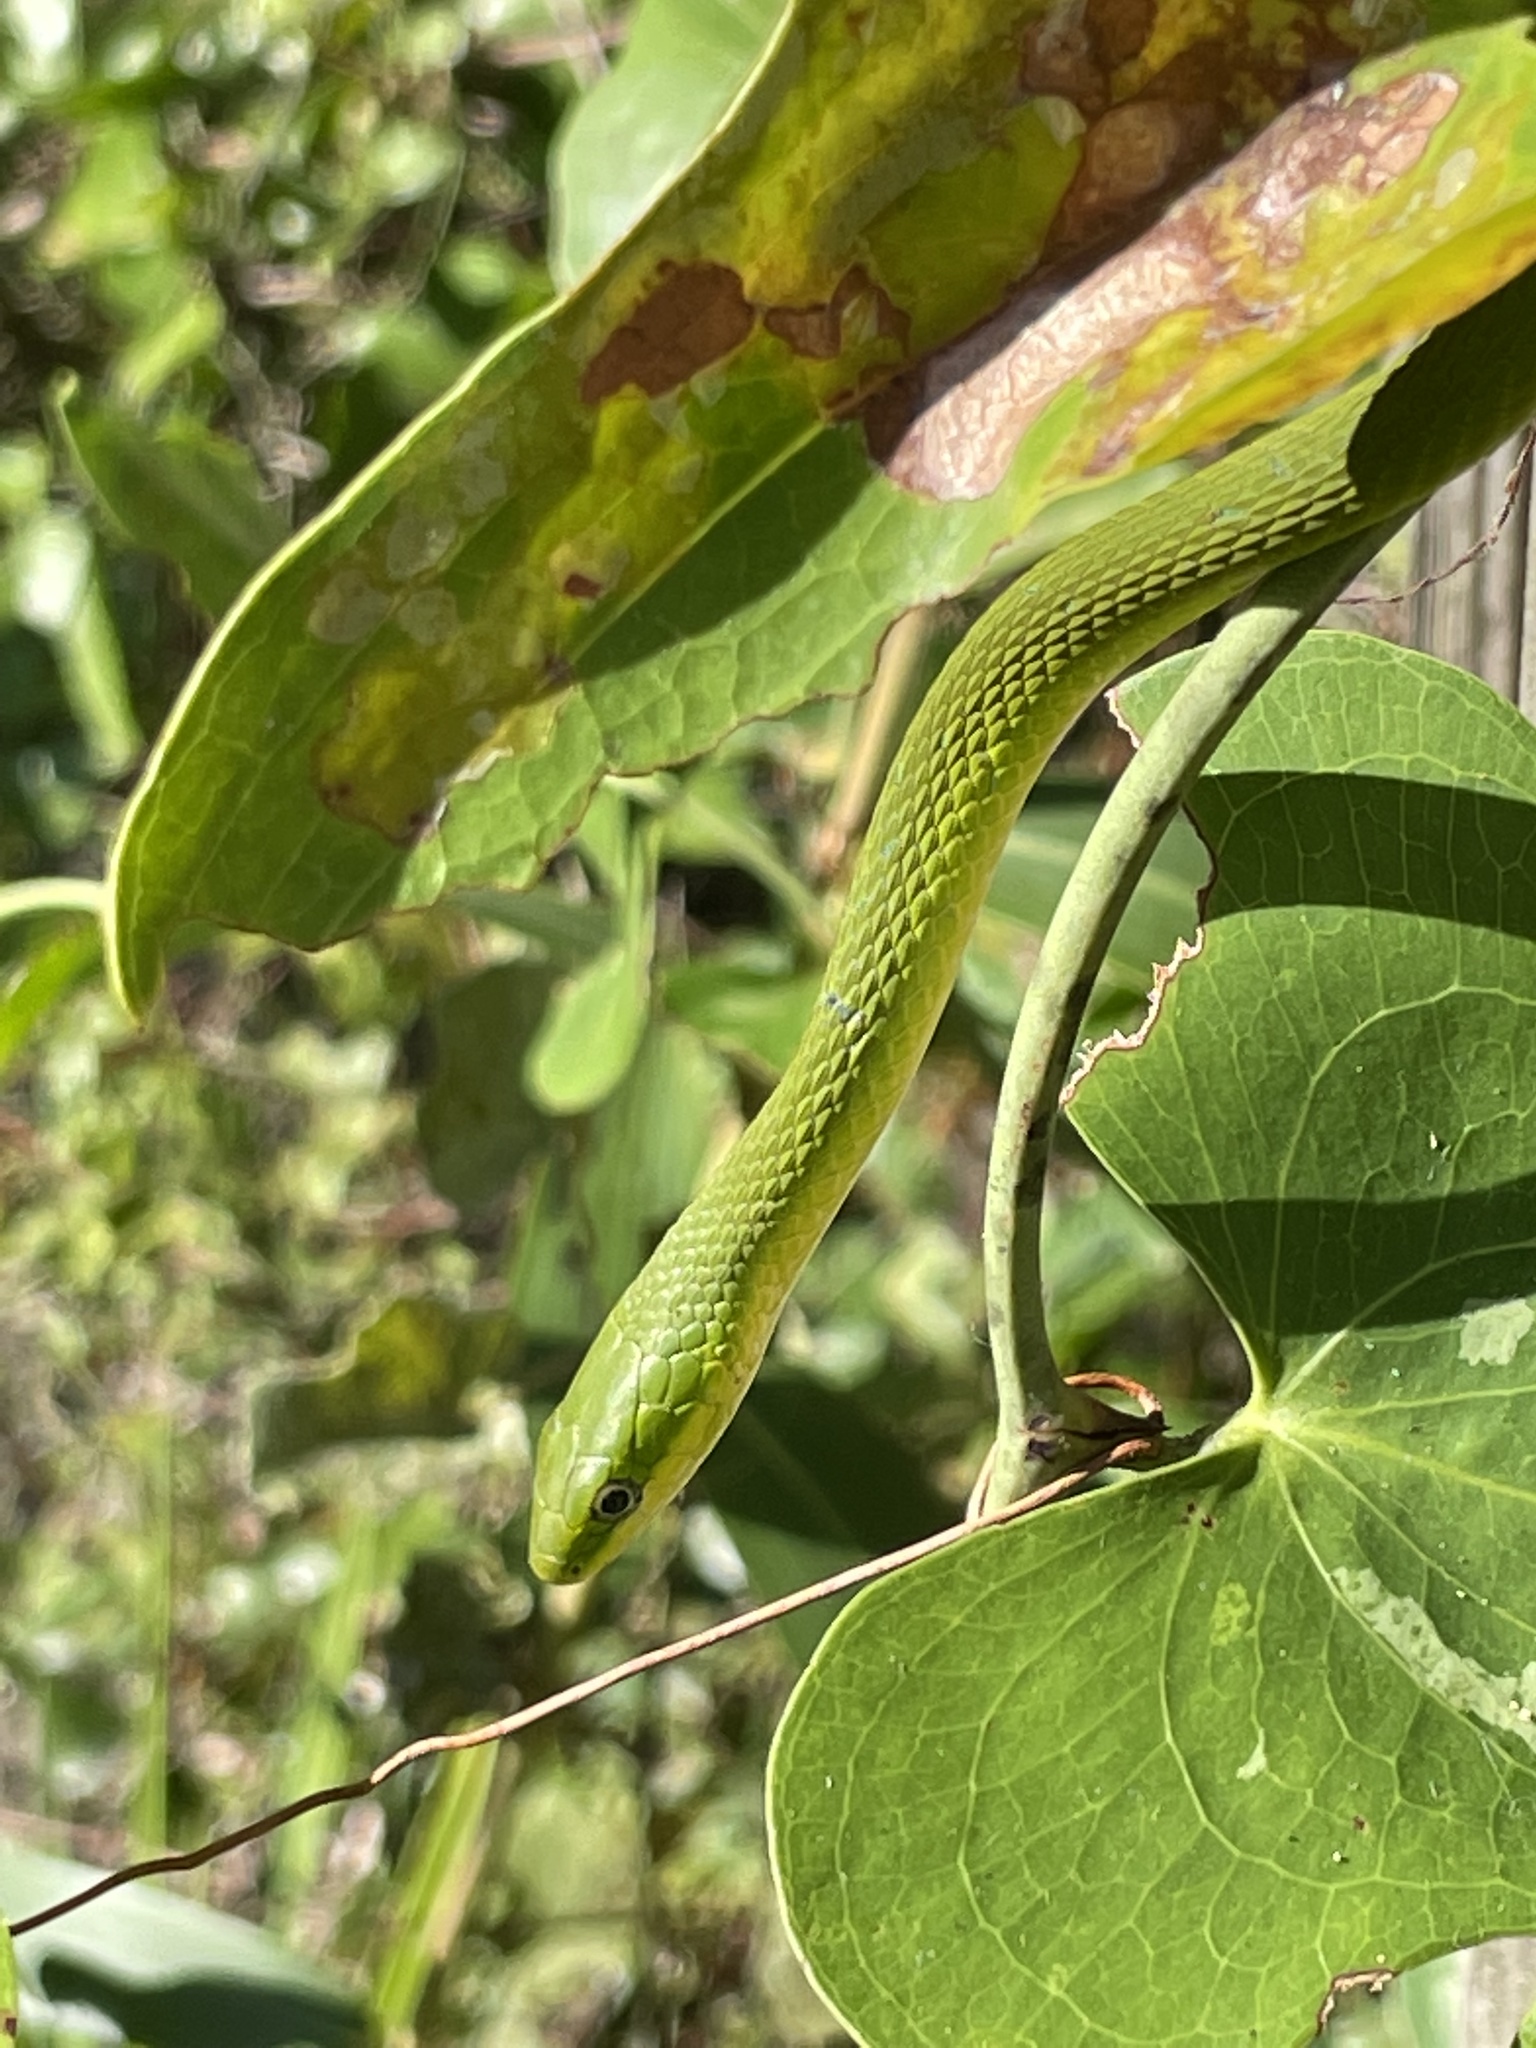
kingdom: Animalia
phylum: Chordata
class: Squamata
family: Colubridae
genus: Opheodrys
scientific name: Opheodrys aestivus
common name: Rough greensnake
